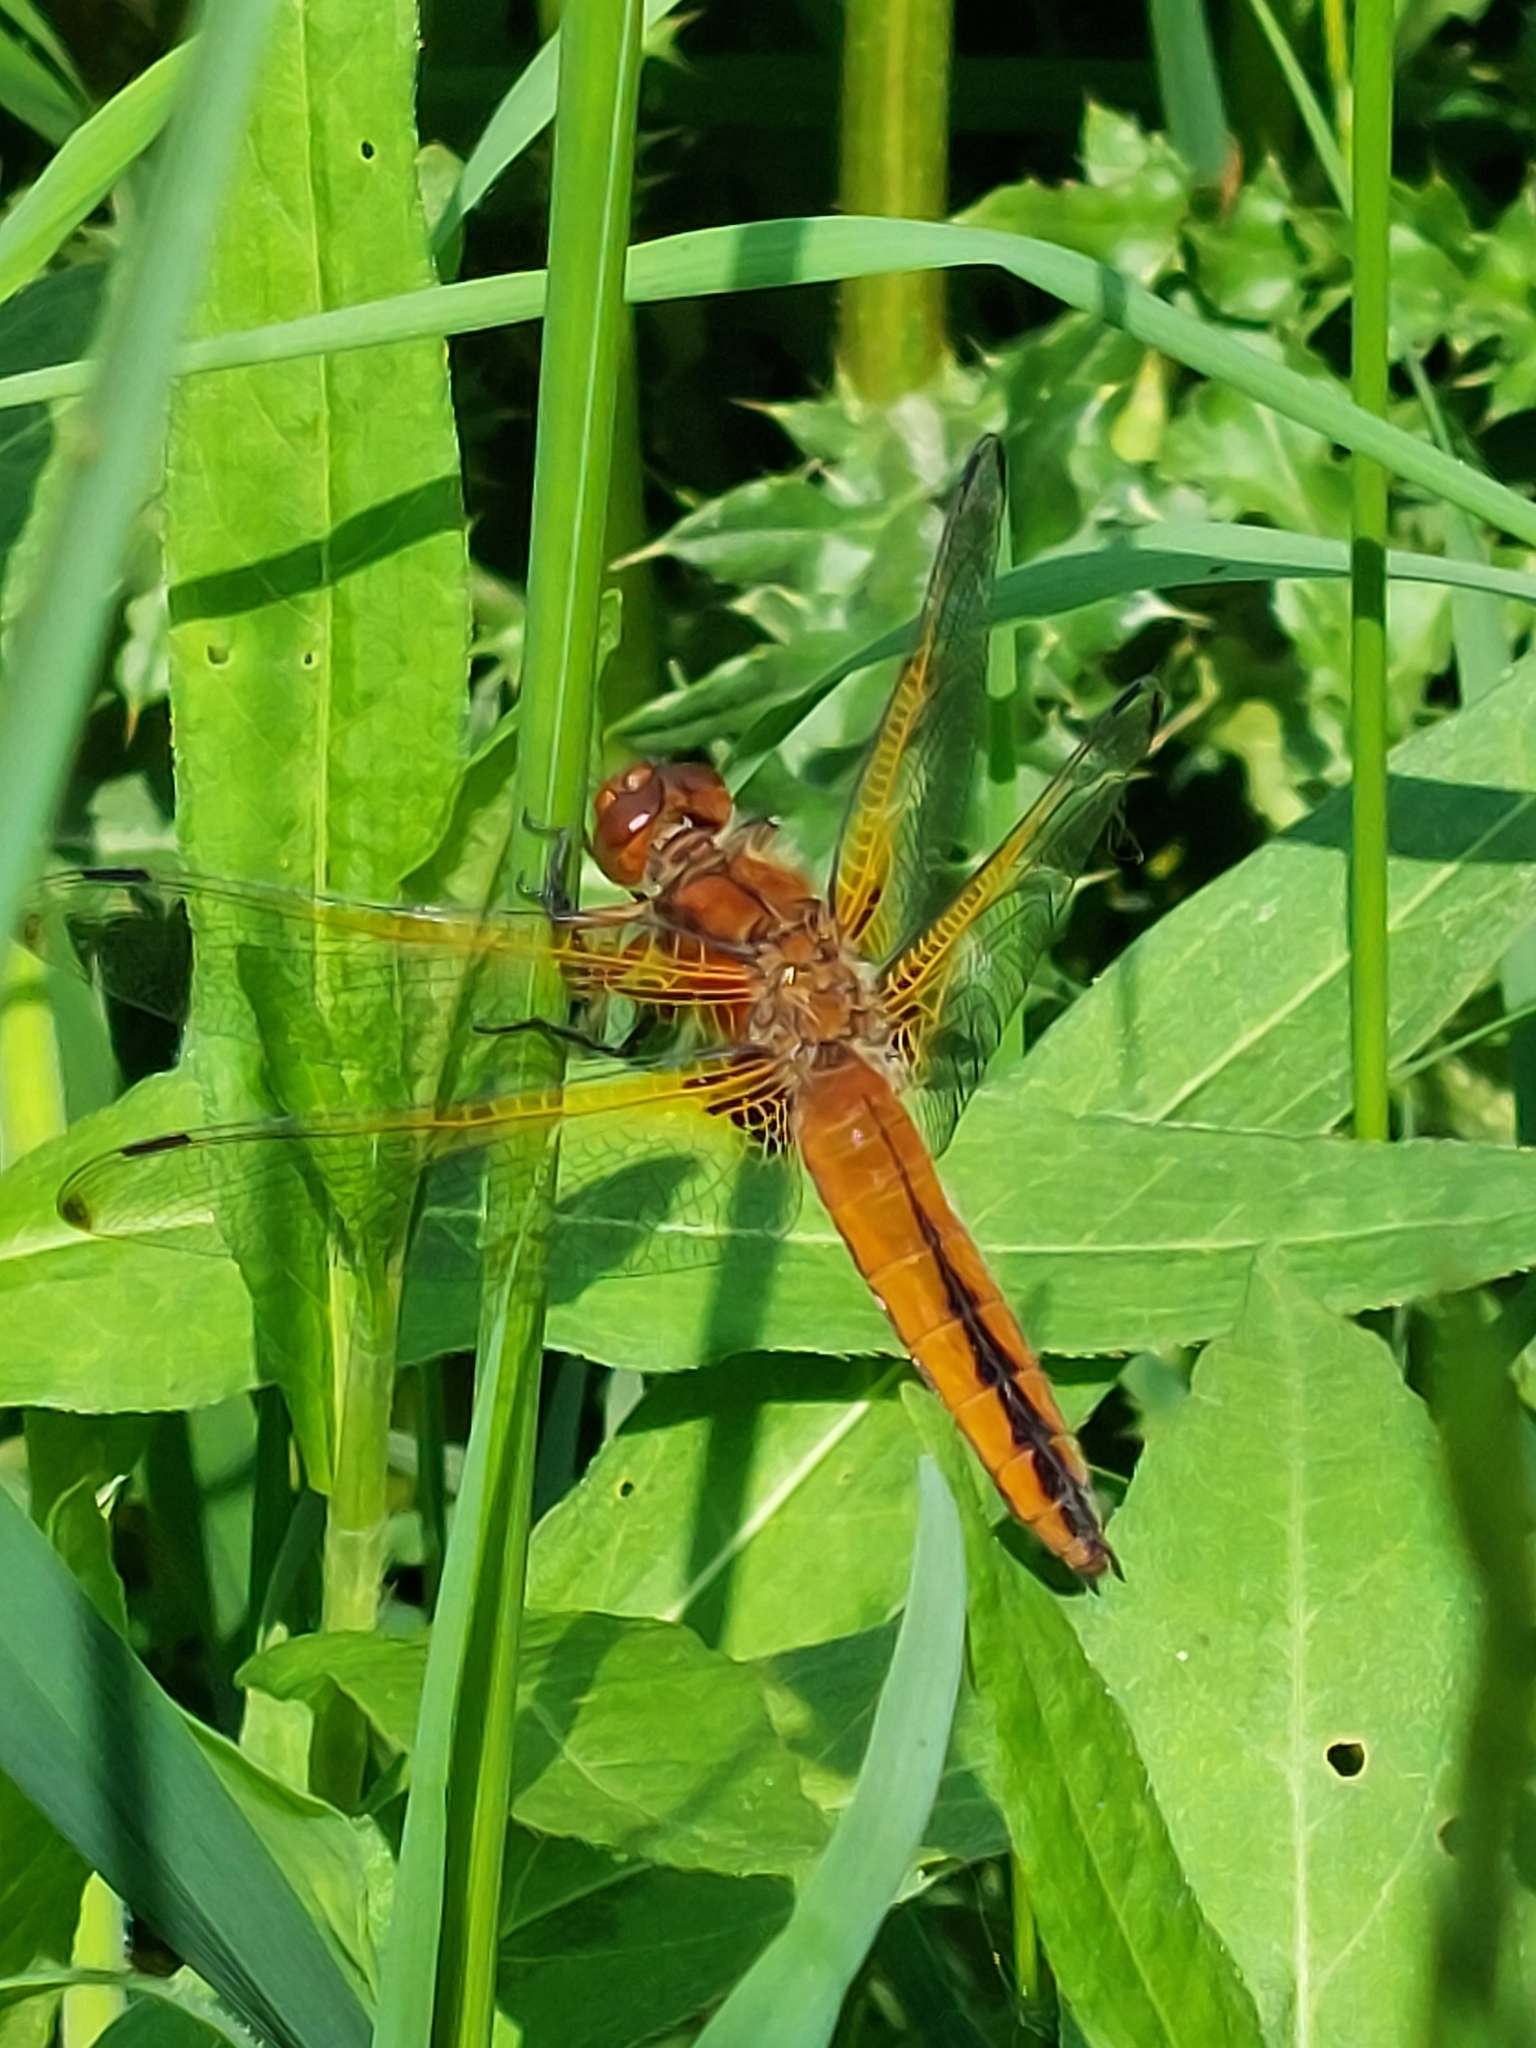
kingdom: Animalia
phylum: Arthropoda
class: Insecta
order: Odonata
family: Libellulidae
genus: Libellula
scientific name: Libellula fulva
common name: Blue chaser
